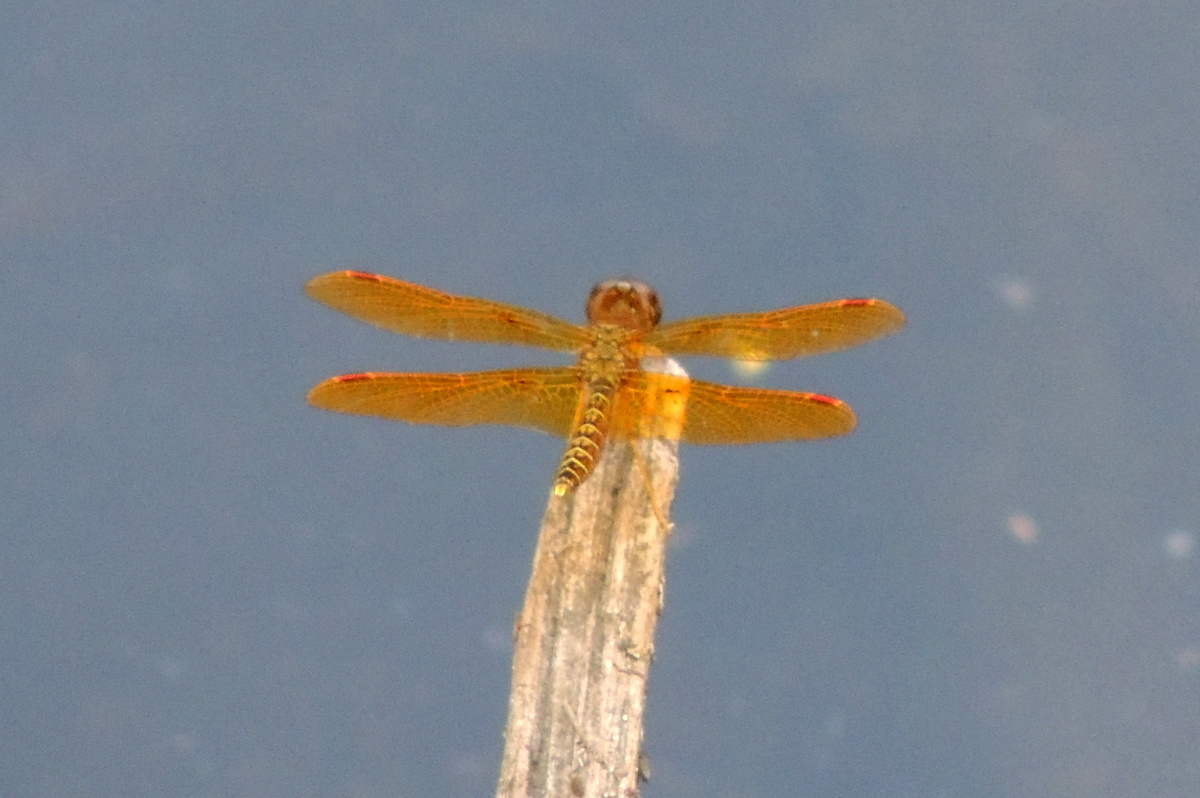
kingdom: Animalia
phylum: Arthropoda
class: Insecta
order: Odonata
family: Libellulidae
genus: Perithemis
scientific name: Perithemis tenera
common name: Eastern amberwing
